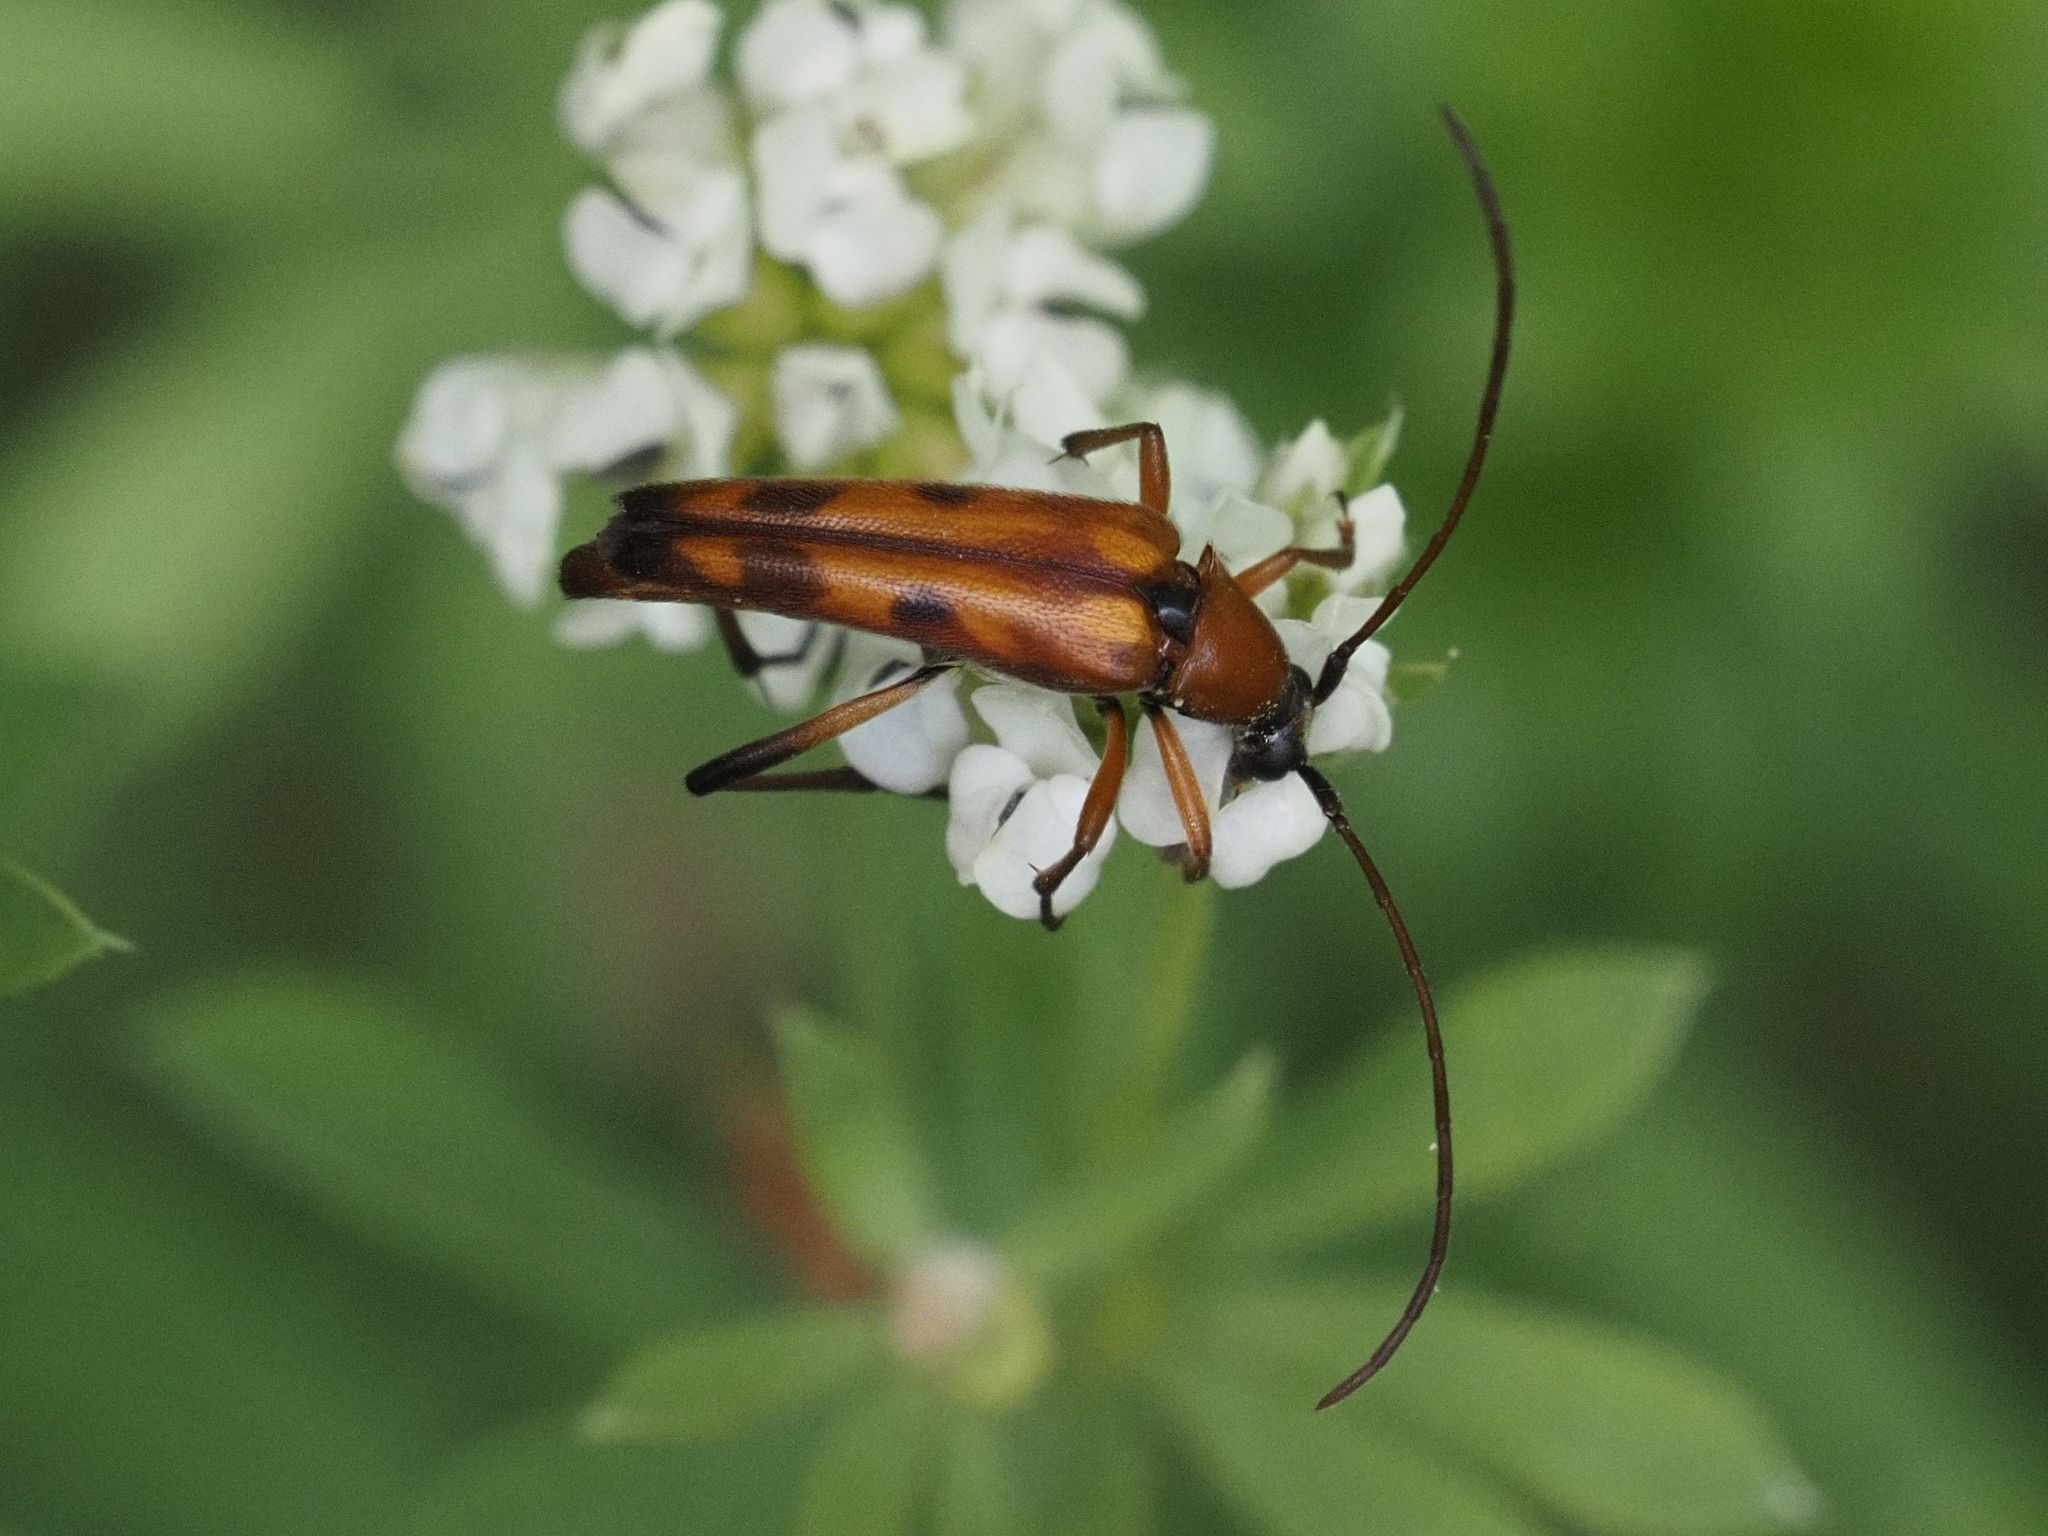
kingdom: Animalia
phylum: Arthropoda
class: Insecta
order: Coleoptera
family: Cerambycidae
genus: Stenurella
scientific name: Stenurella septempunctata
